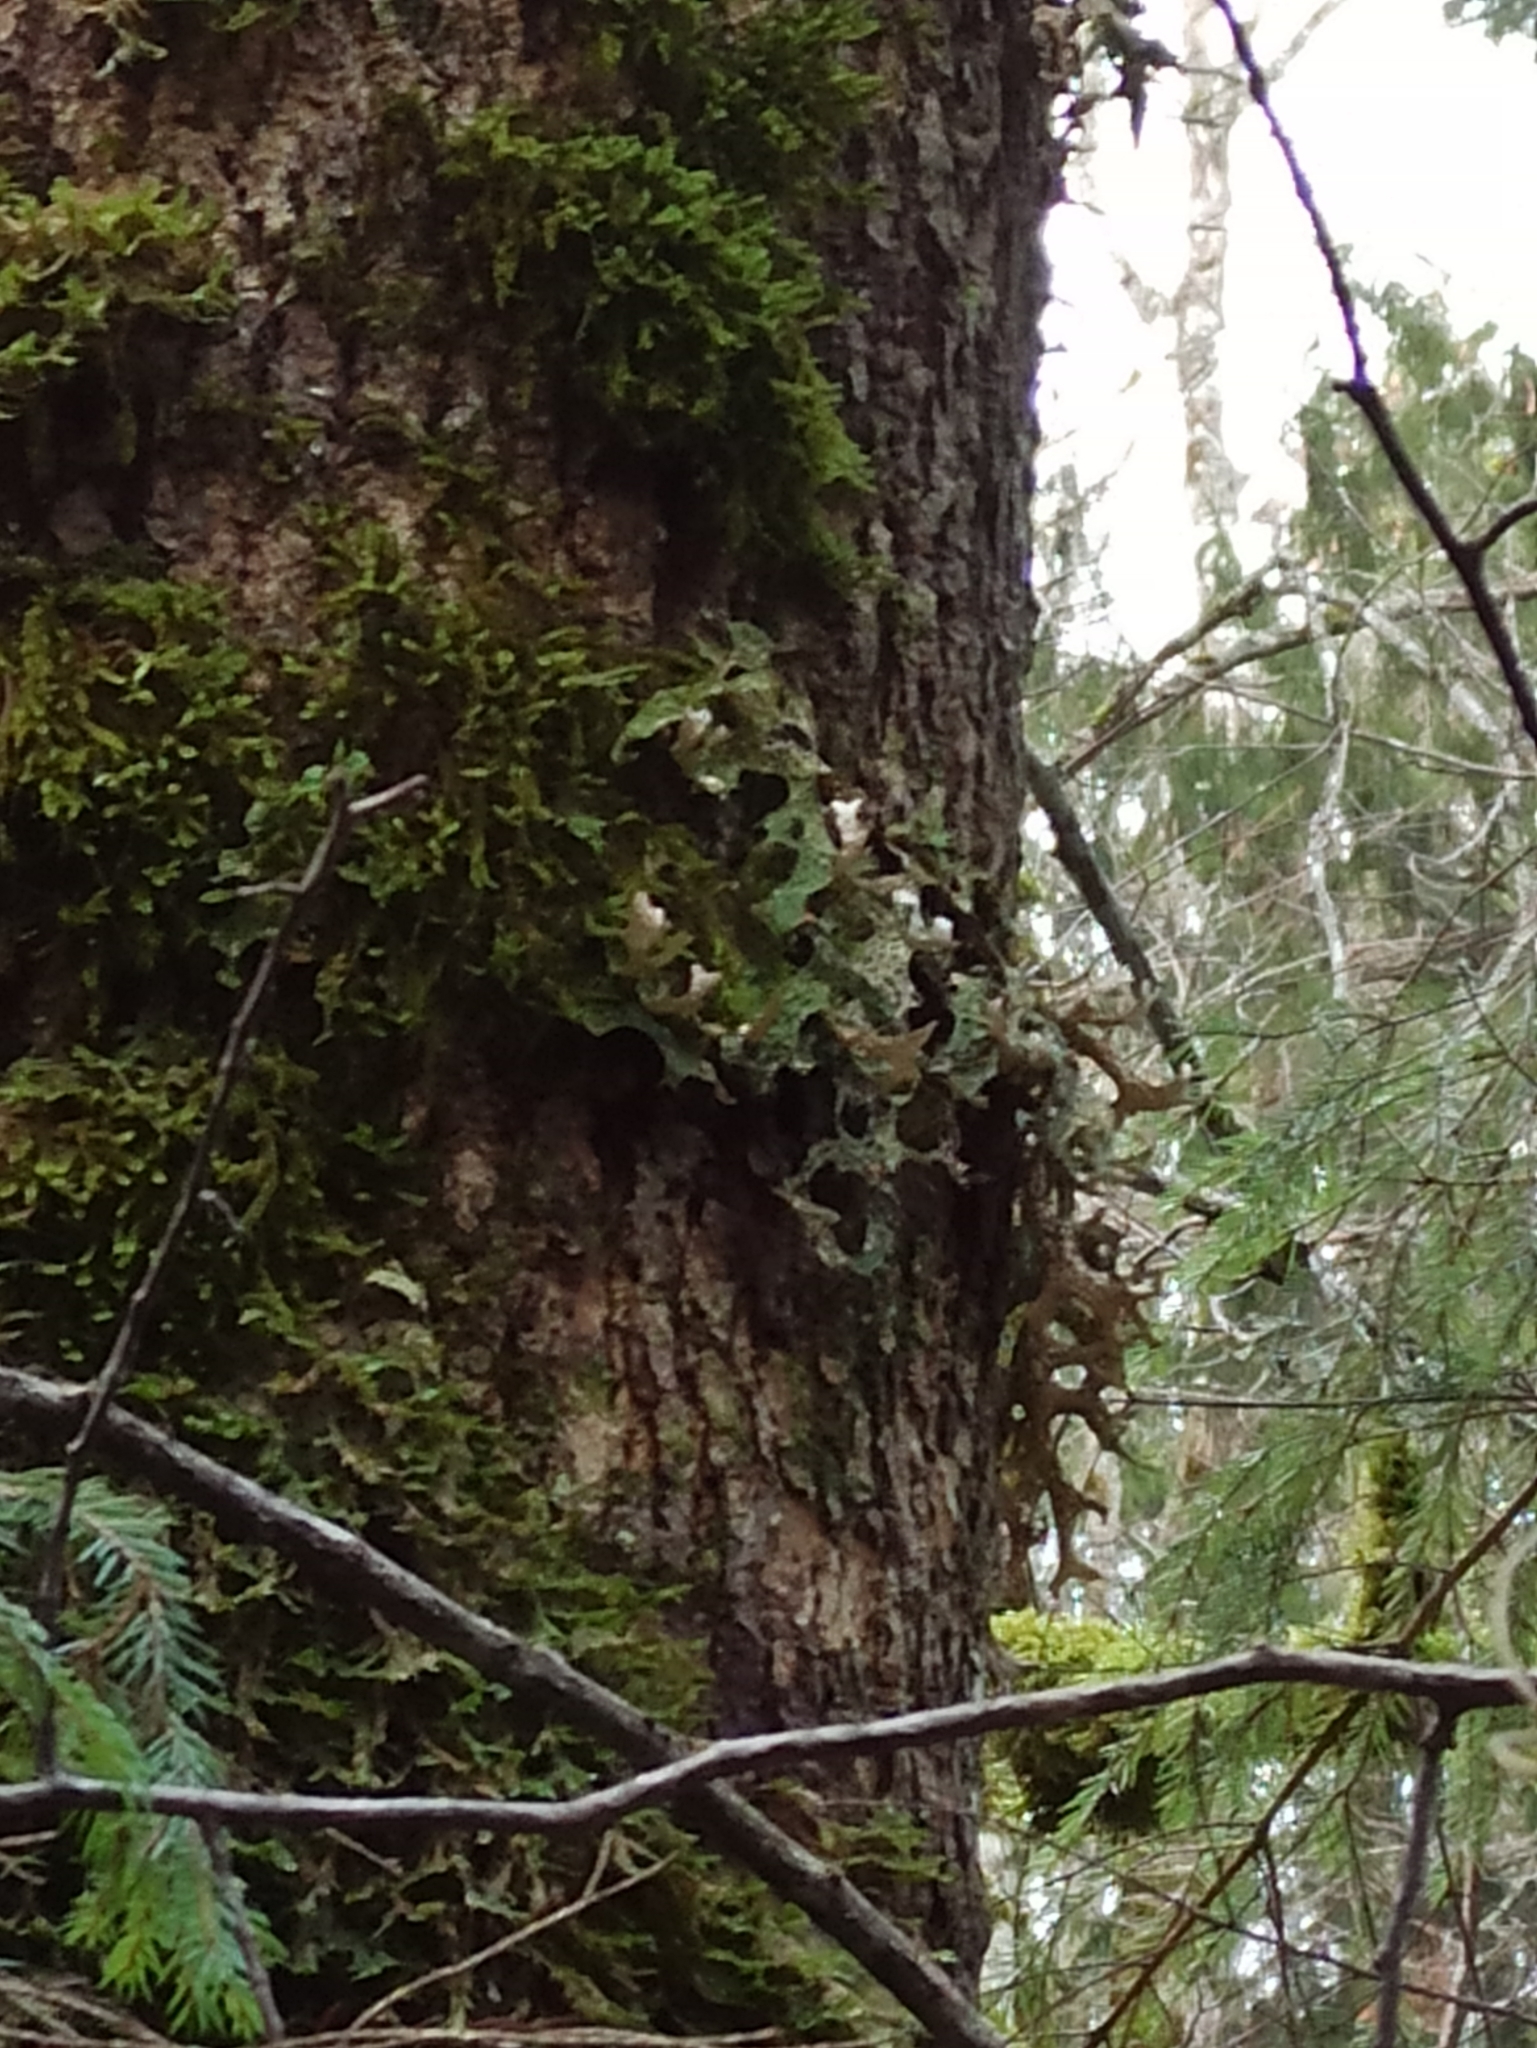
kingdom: Fungi
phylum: Ascomycota
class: Lecanoromycetes
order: Peltigerales
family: Lobariaceae
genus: Lobaria
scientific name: Lobaria pulmonaria
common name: Lungwort
